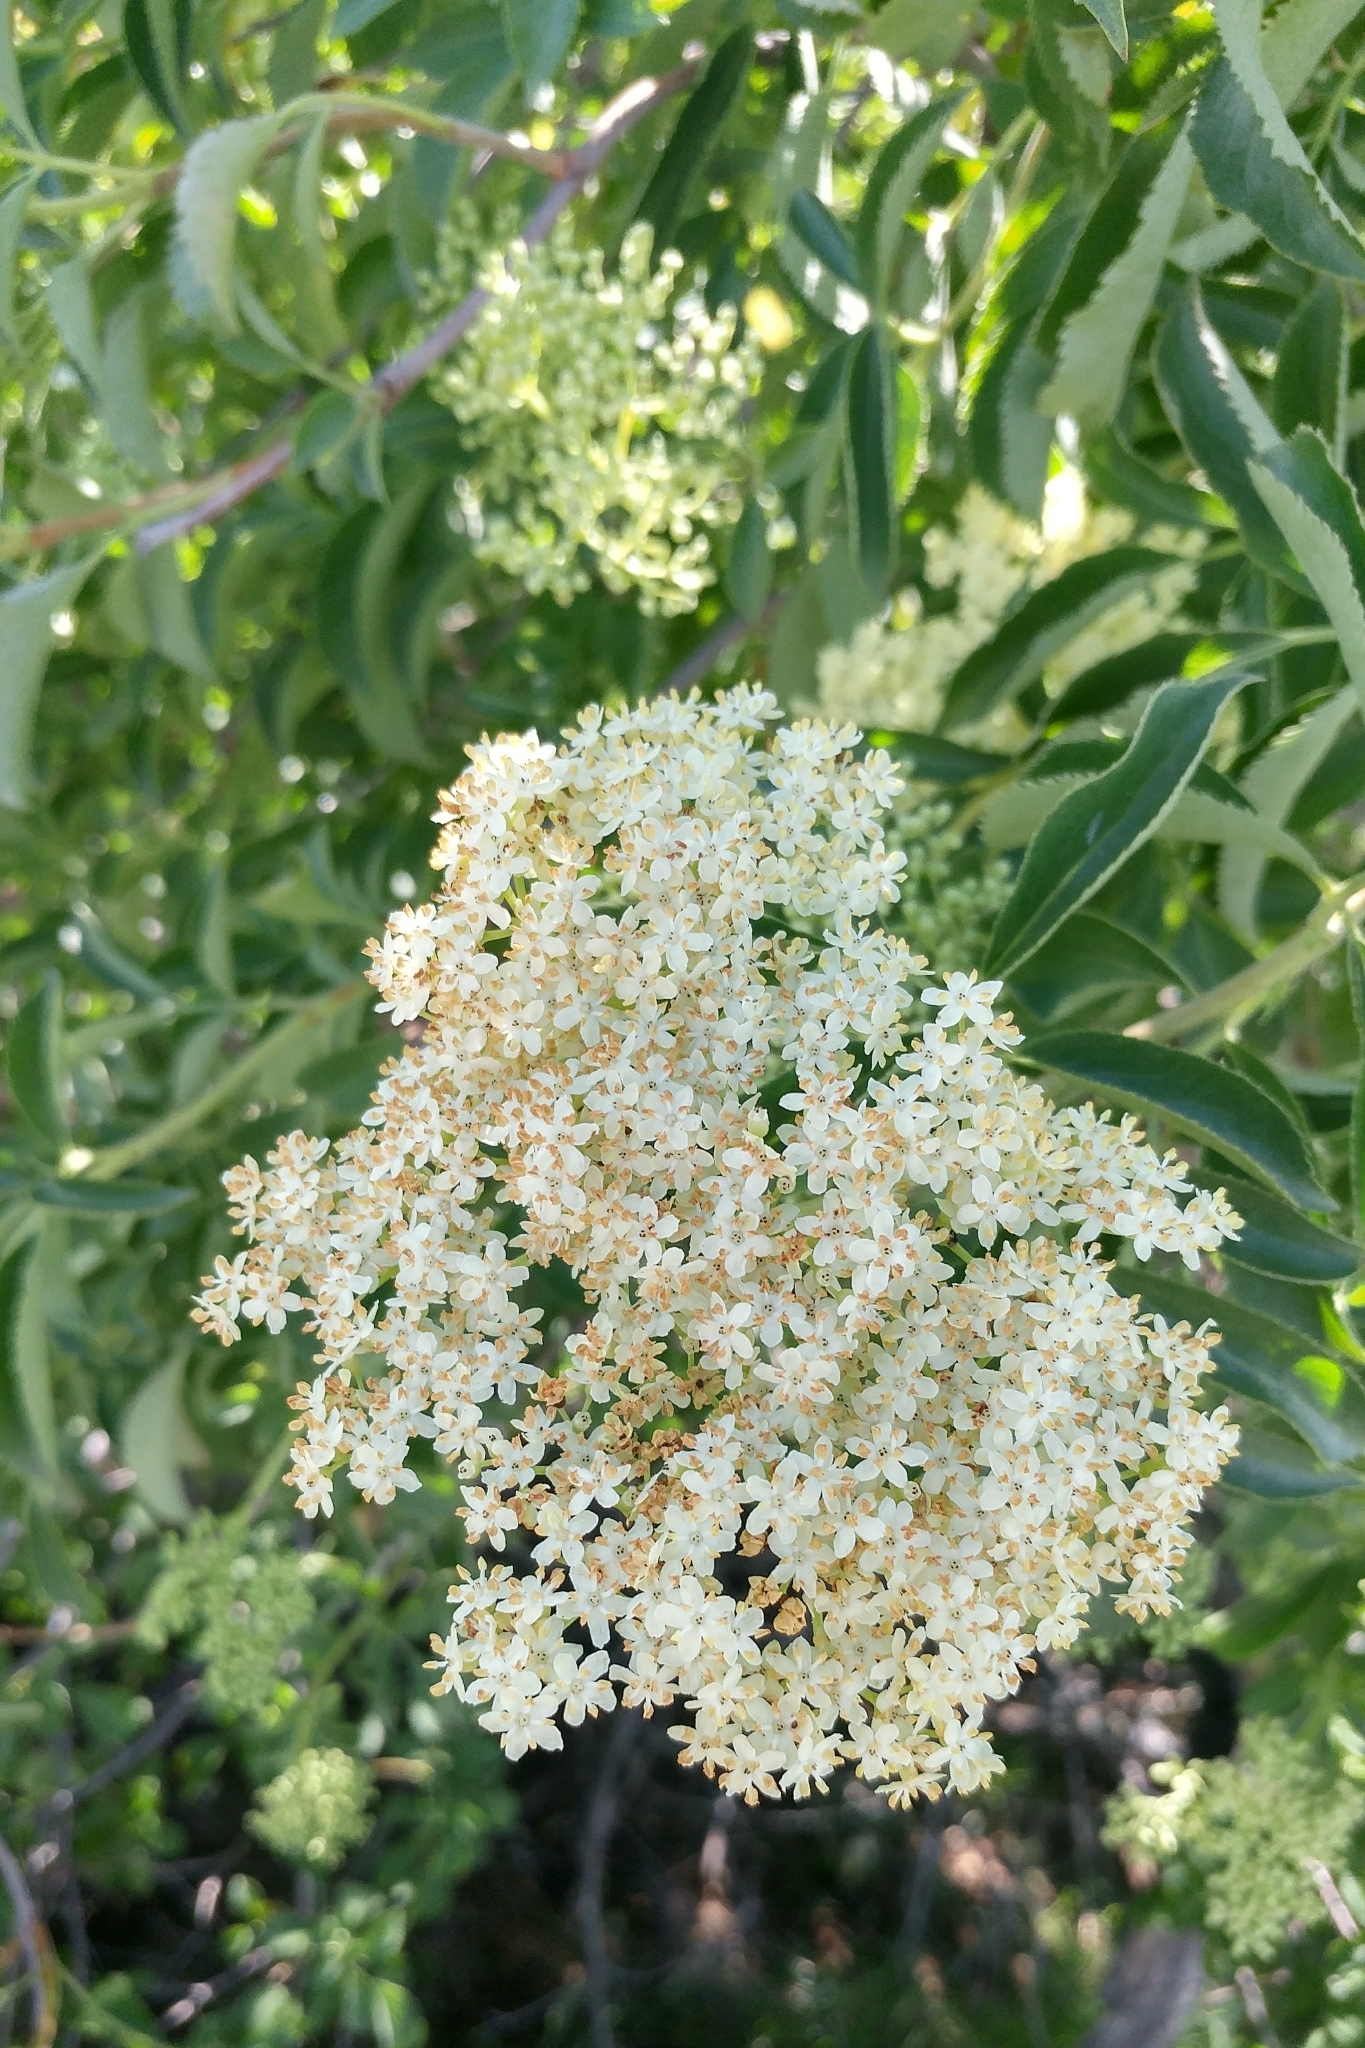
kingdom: Plantae
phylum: Tracheophyta
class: Magnoliopsida
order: Dipsacales
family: Viburnaceae
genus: Sambucus
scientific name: Sambucus cerulea
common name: Blue elder
